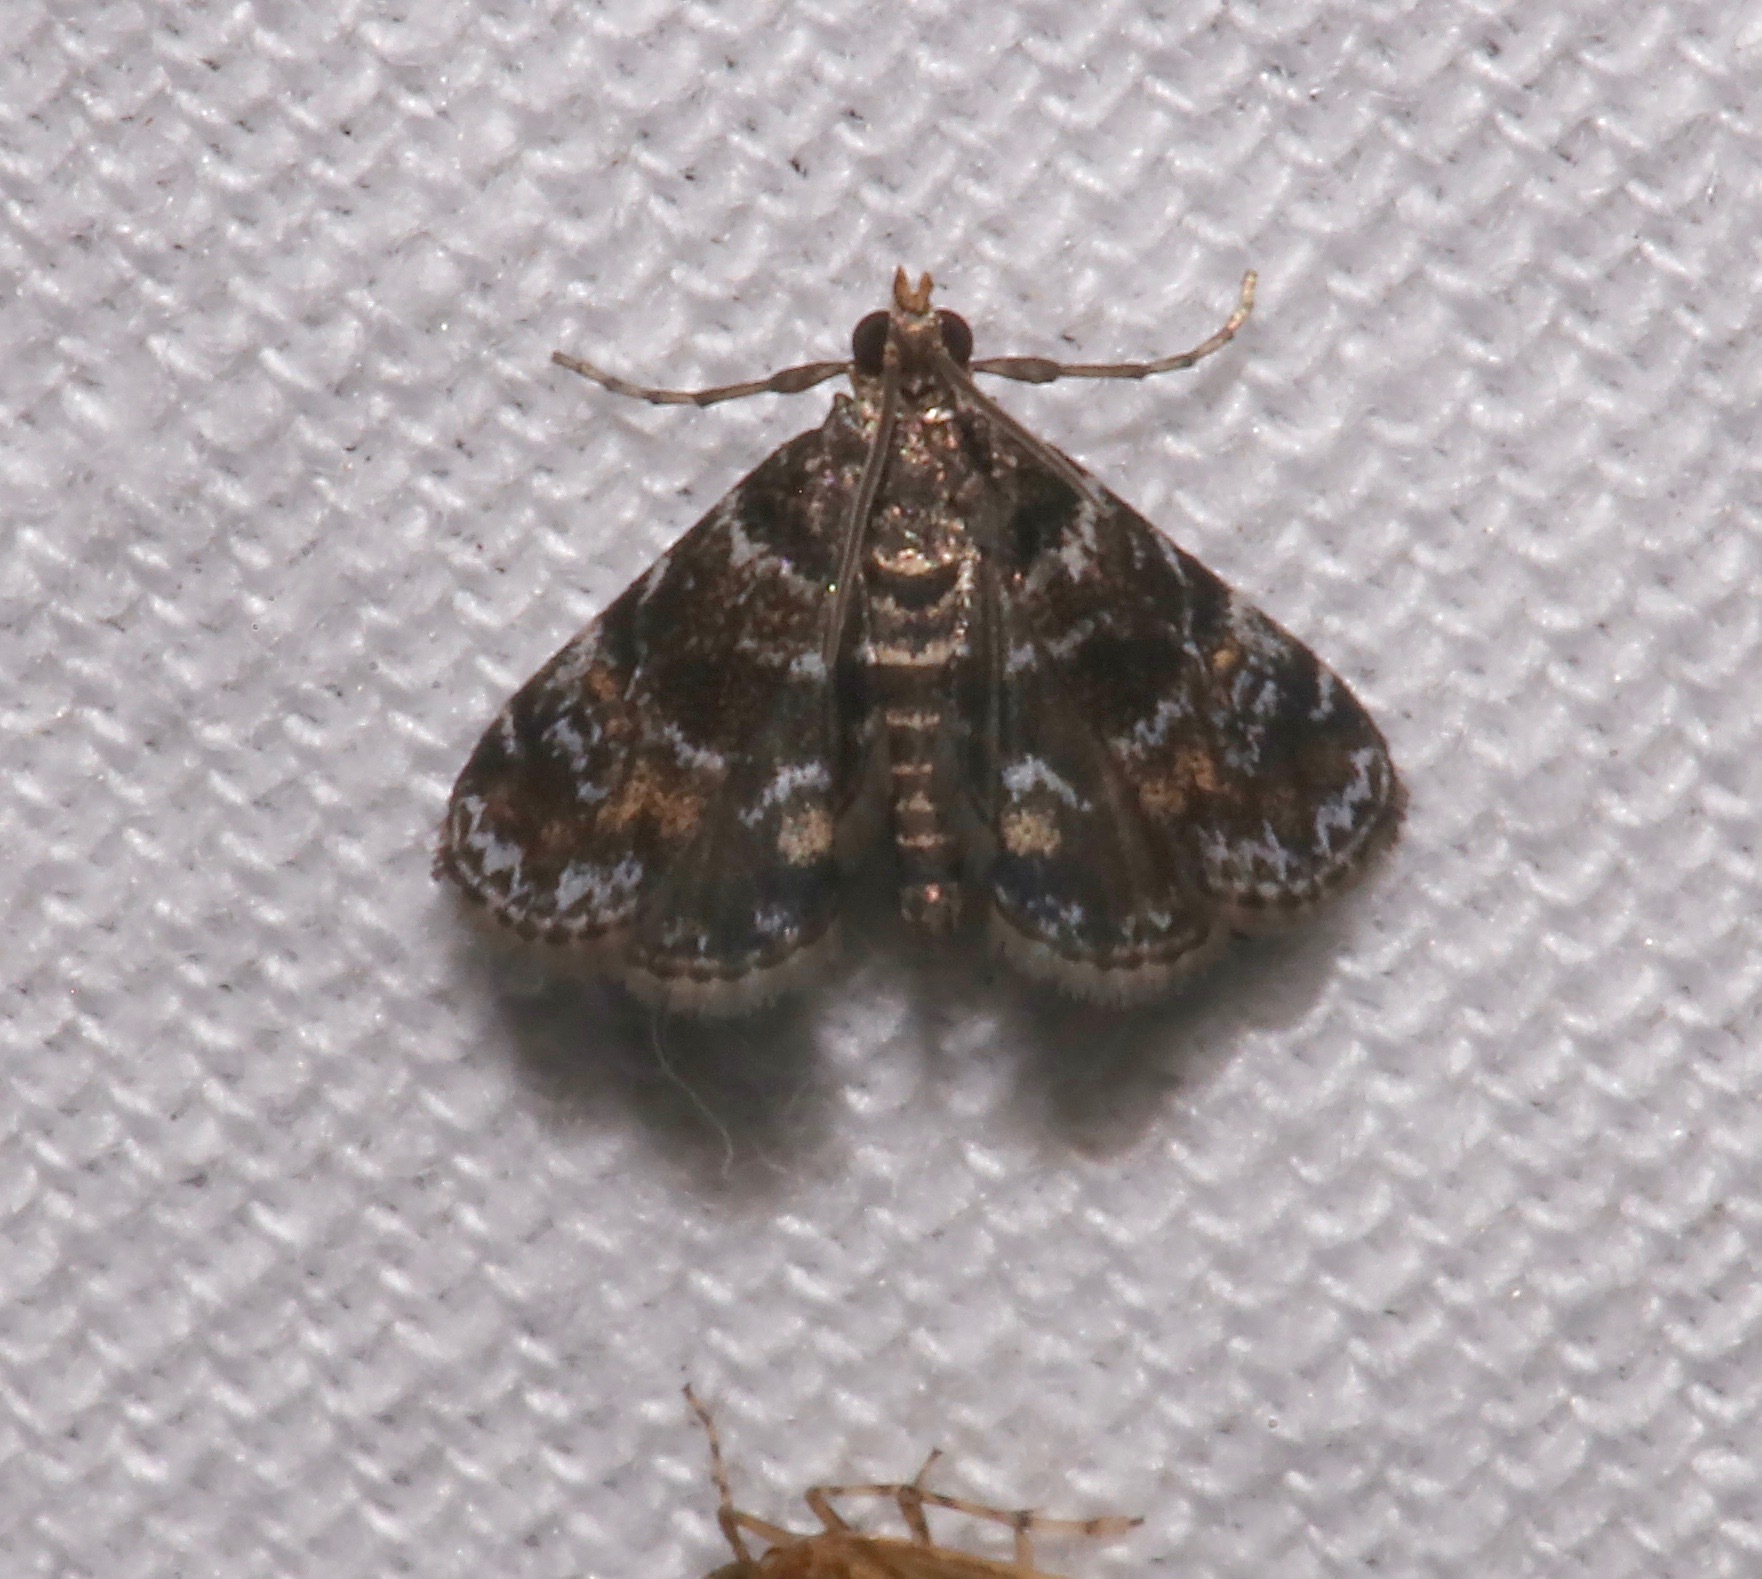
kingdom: Animalia
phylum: Arthropoda
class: Insecta
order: Lepidoptera
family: Crambidae
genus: Elophila
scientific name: Elophila obliteralis
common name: Waterlily leafcutter moth
